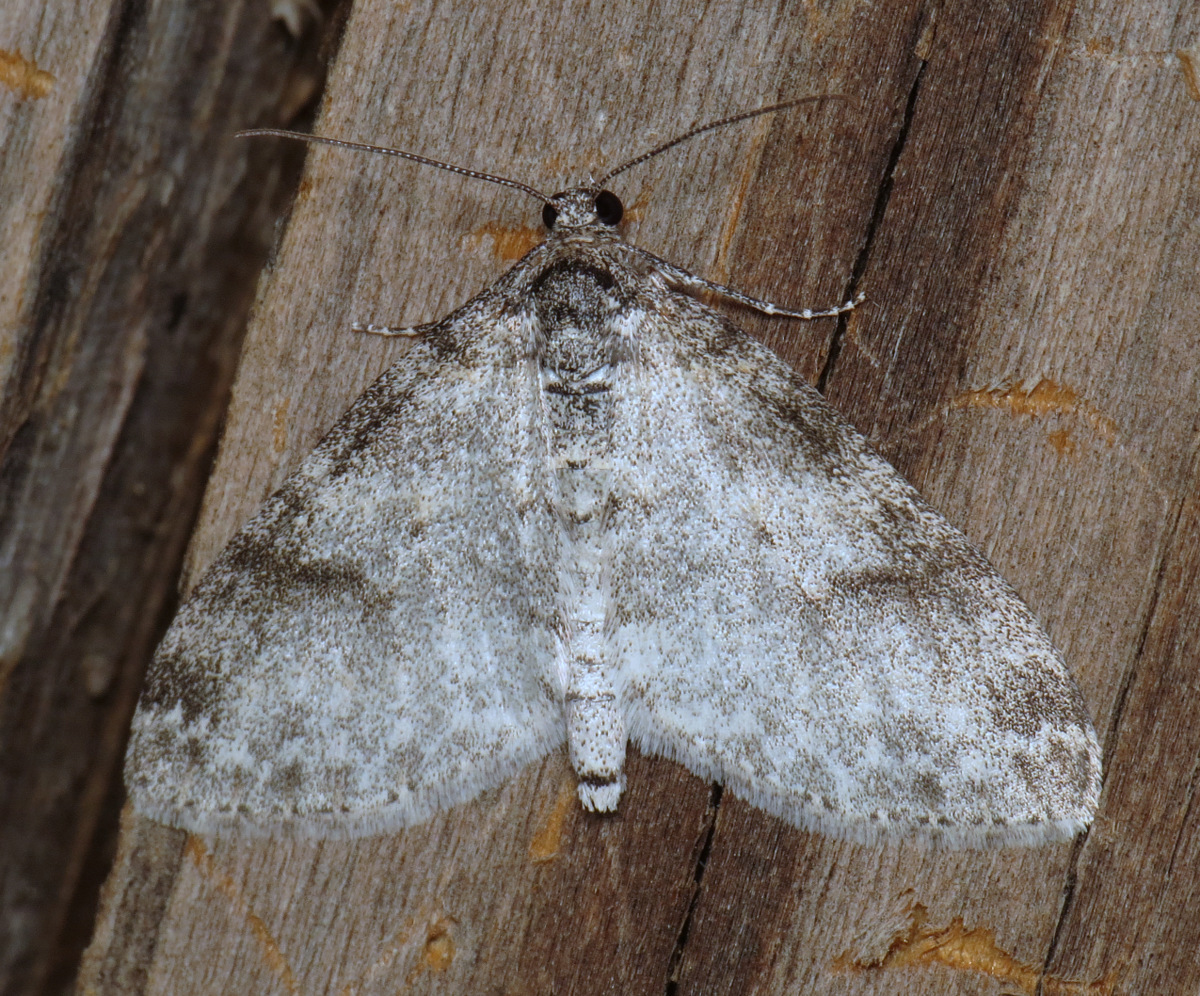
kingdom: Animalia
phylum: Arthropoda
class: Insecta
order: Lepidoptera
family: Geometridae
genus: Lobophora
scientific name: Lobophora nivigerata
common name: Powdered bigwing
